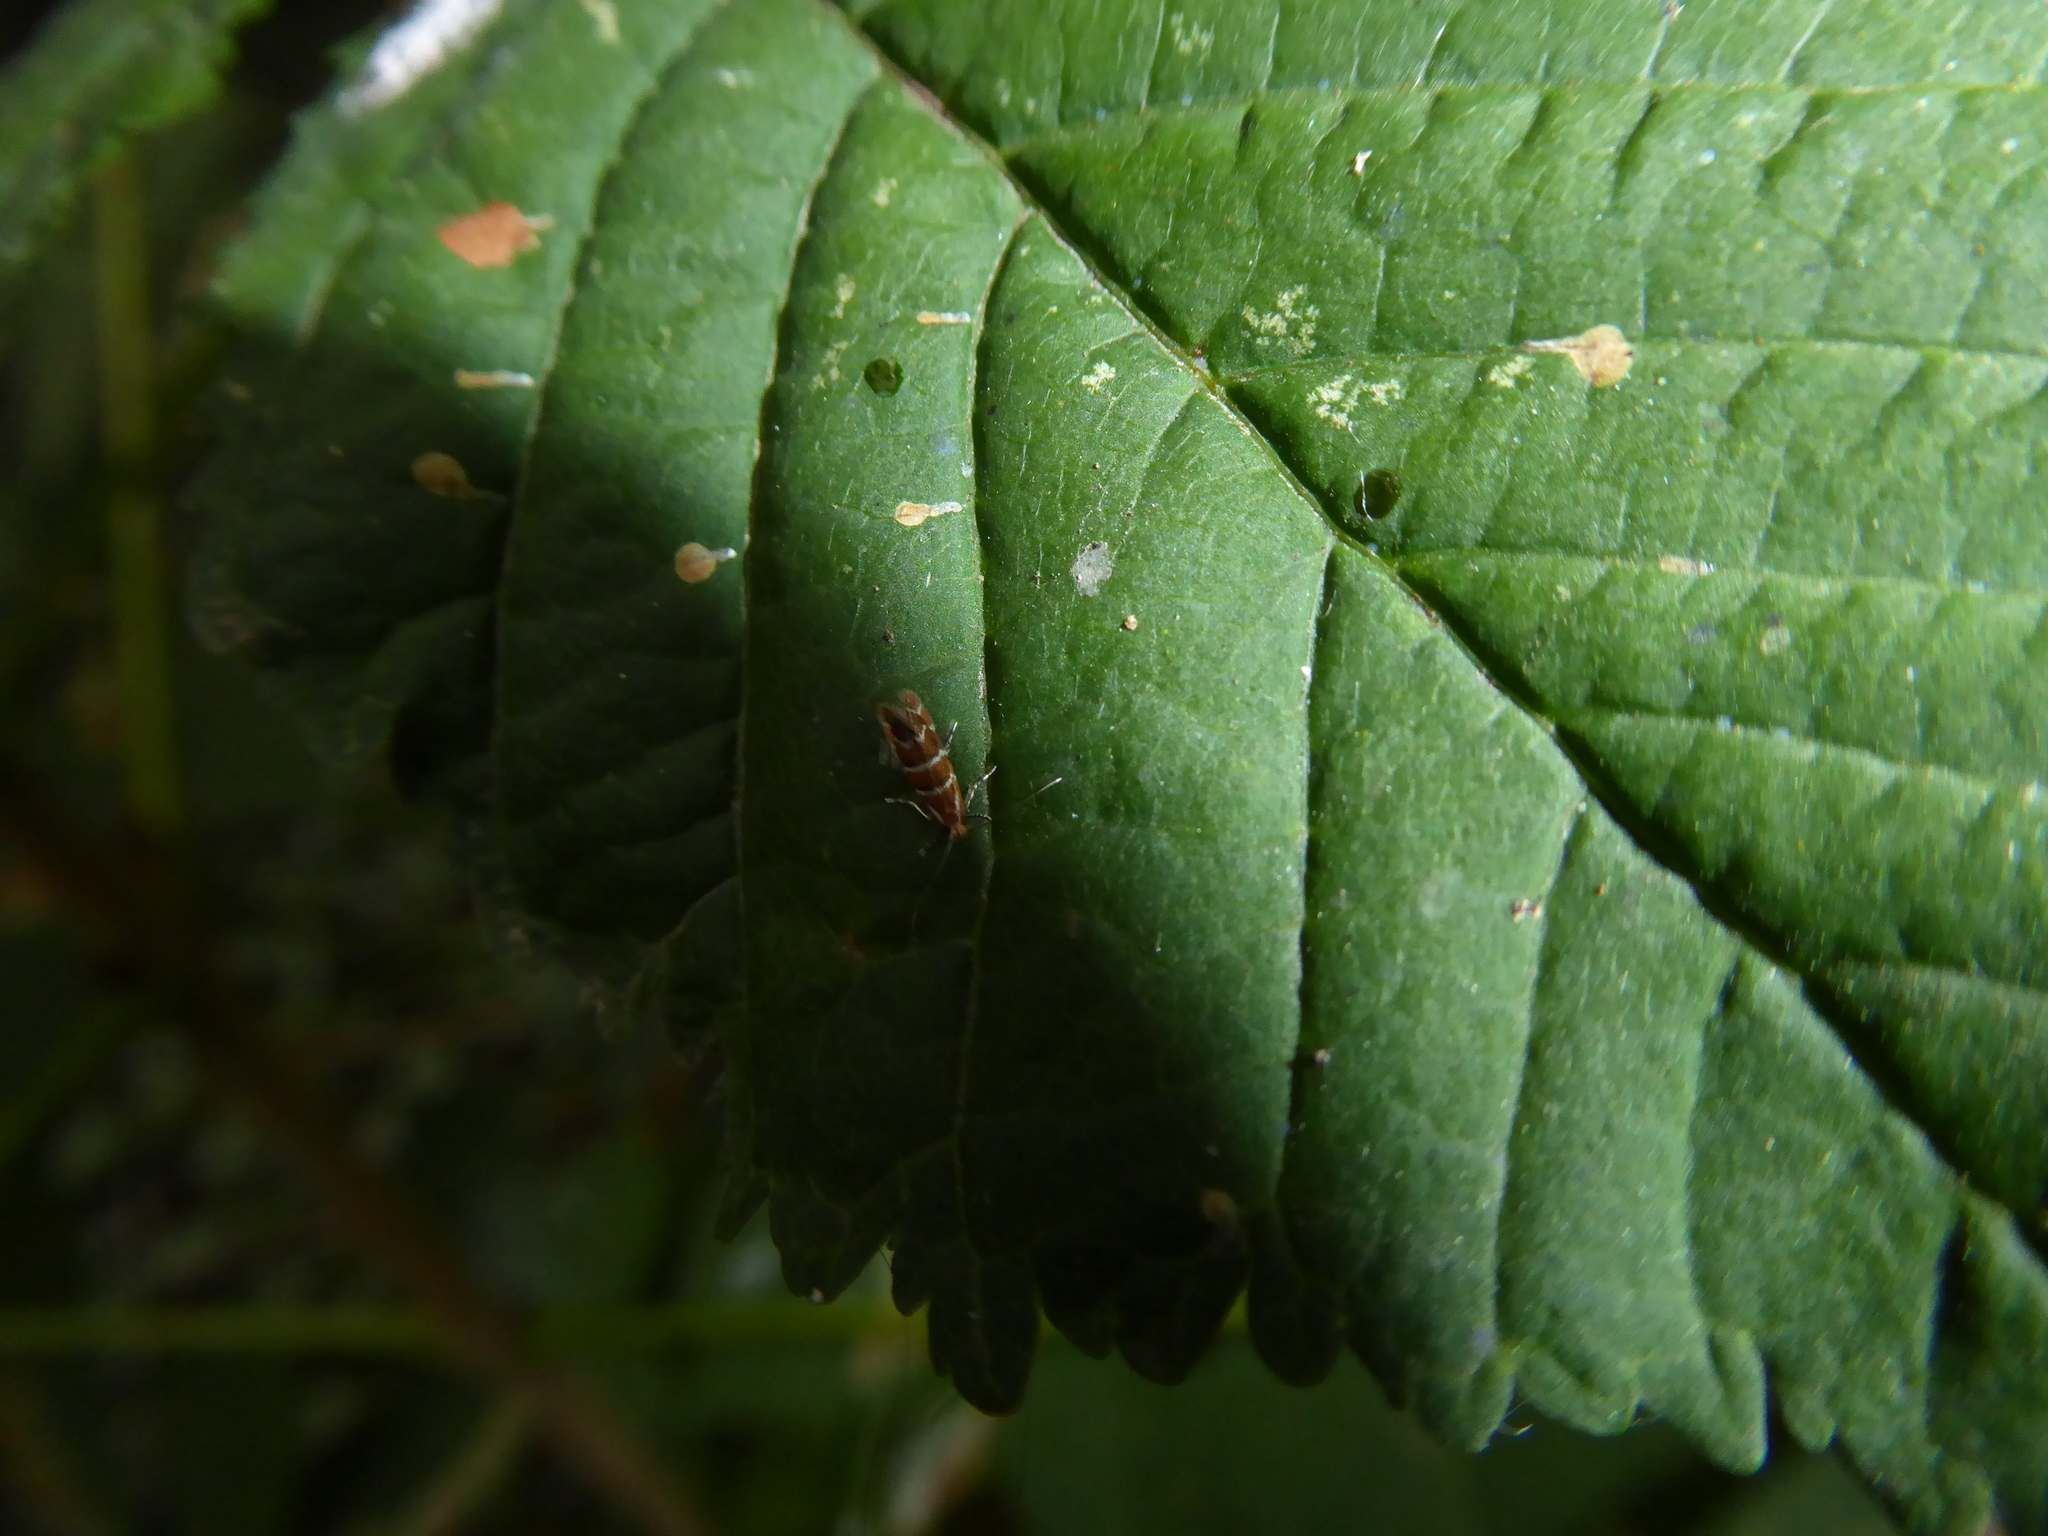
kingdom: Animalia
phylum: Arthropoda
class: Insecta
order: Lepidoptera
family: Gracillariidae
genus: Cameraria
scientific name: Cameraria ohridella
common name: Horse-chestnut leaf-miner
